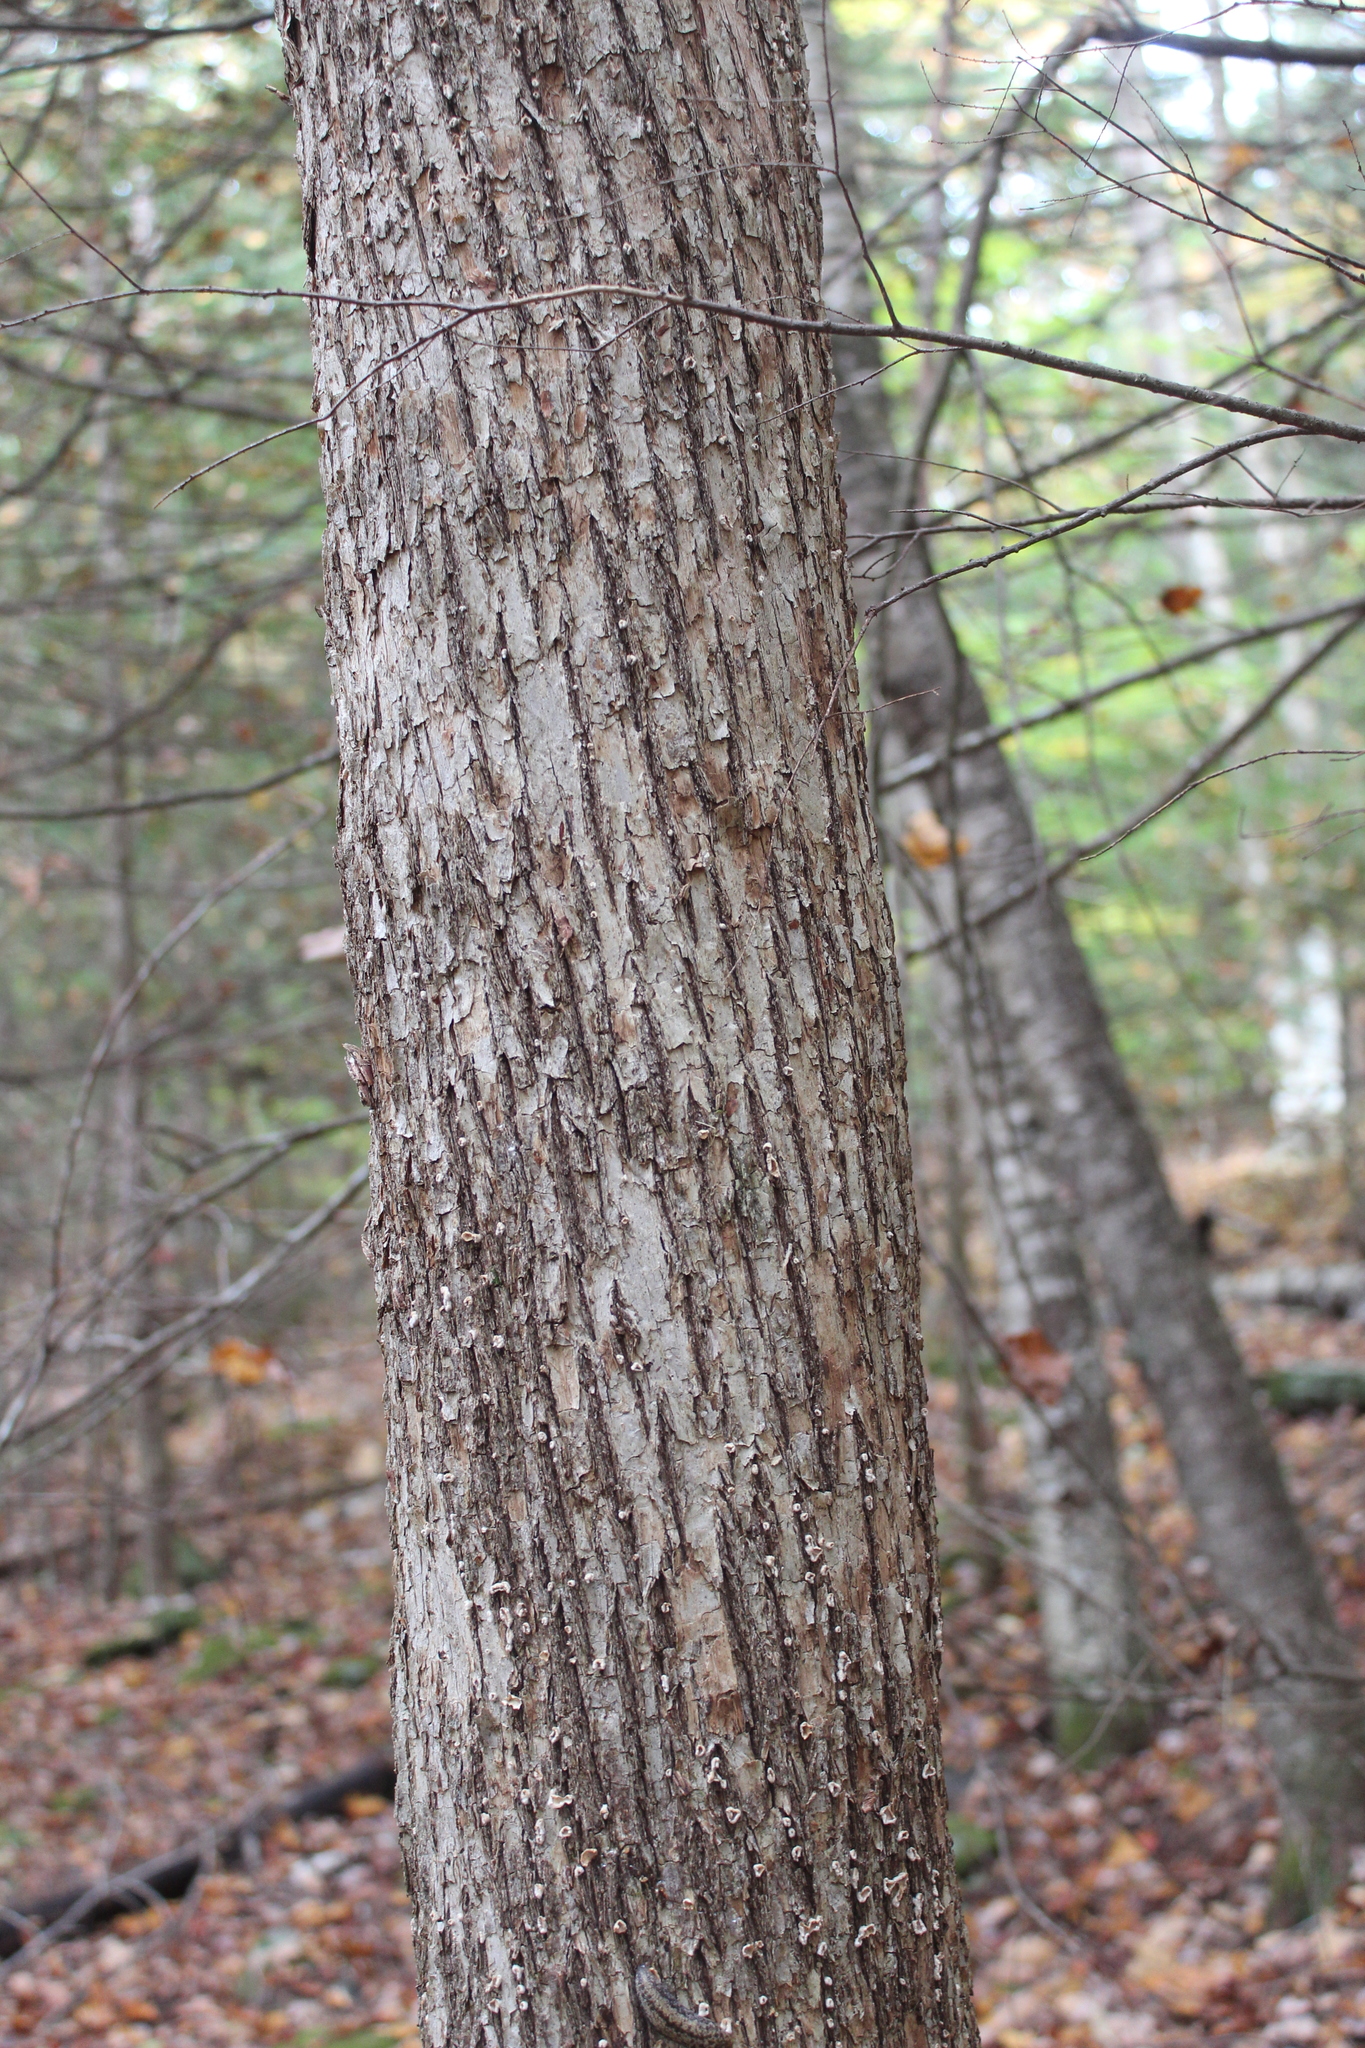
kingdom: Plantae
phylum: Tracheophyta
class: Magnoliopsida
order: Fagales
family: Betulaceae
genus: Ostrya
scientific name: Ostrya virginiana
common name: Ironwood
